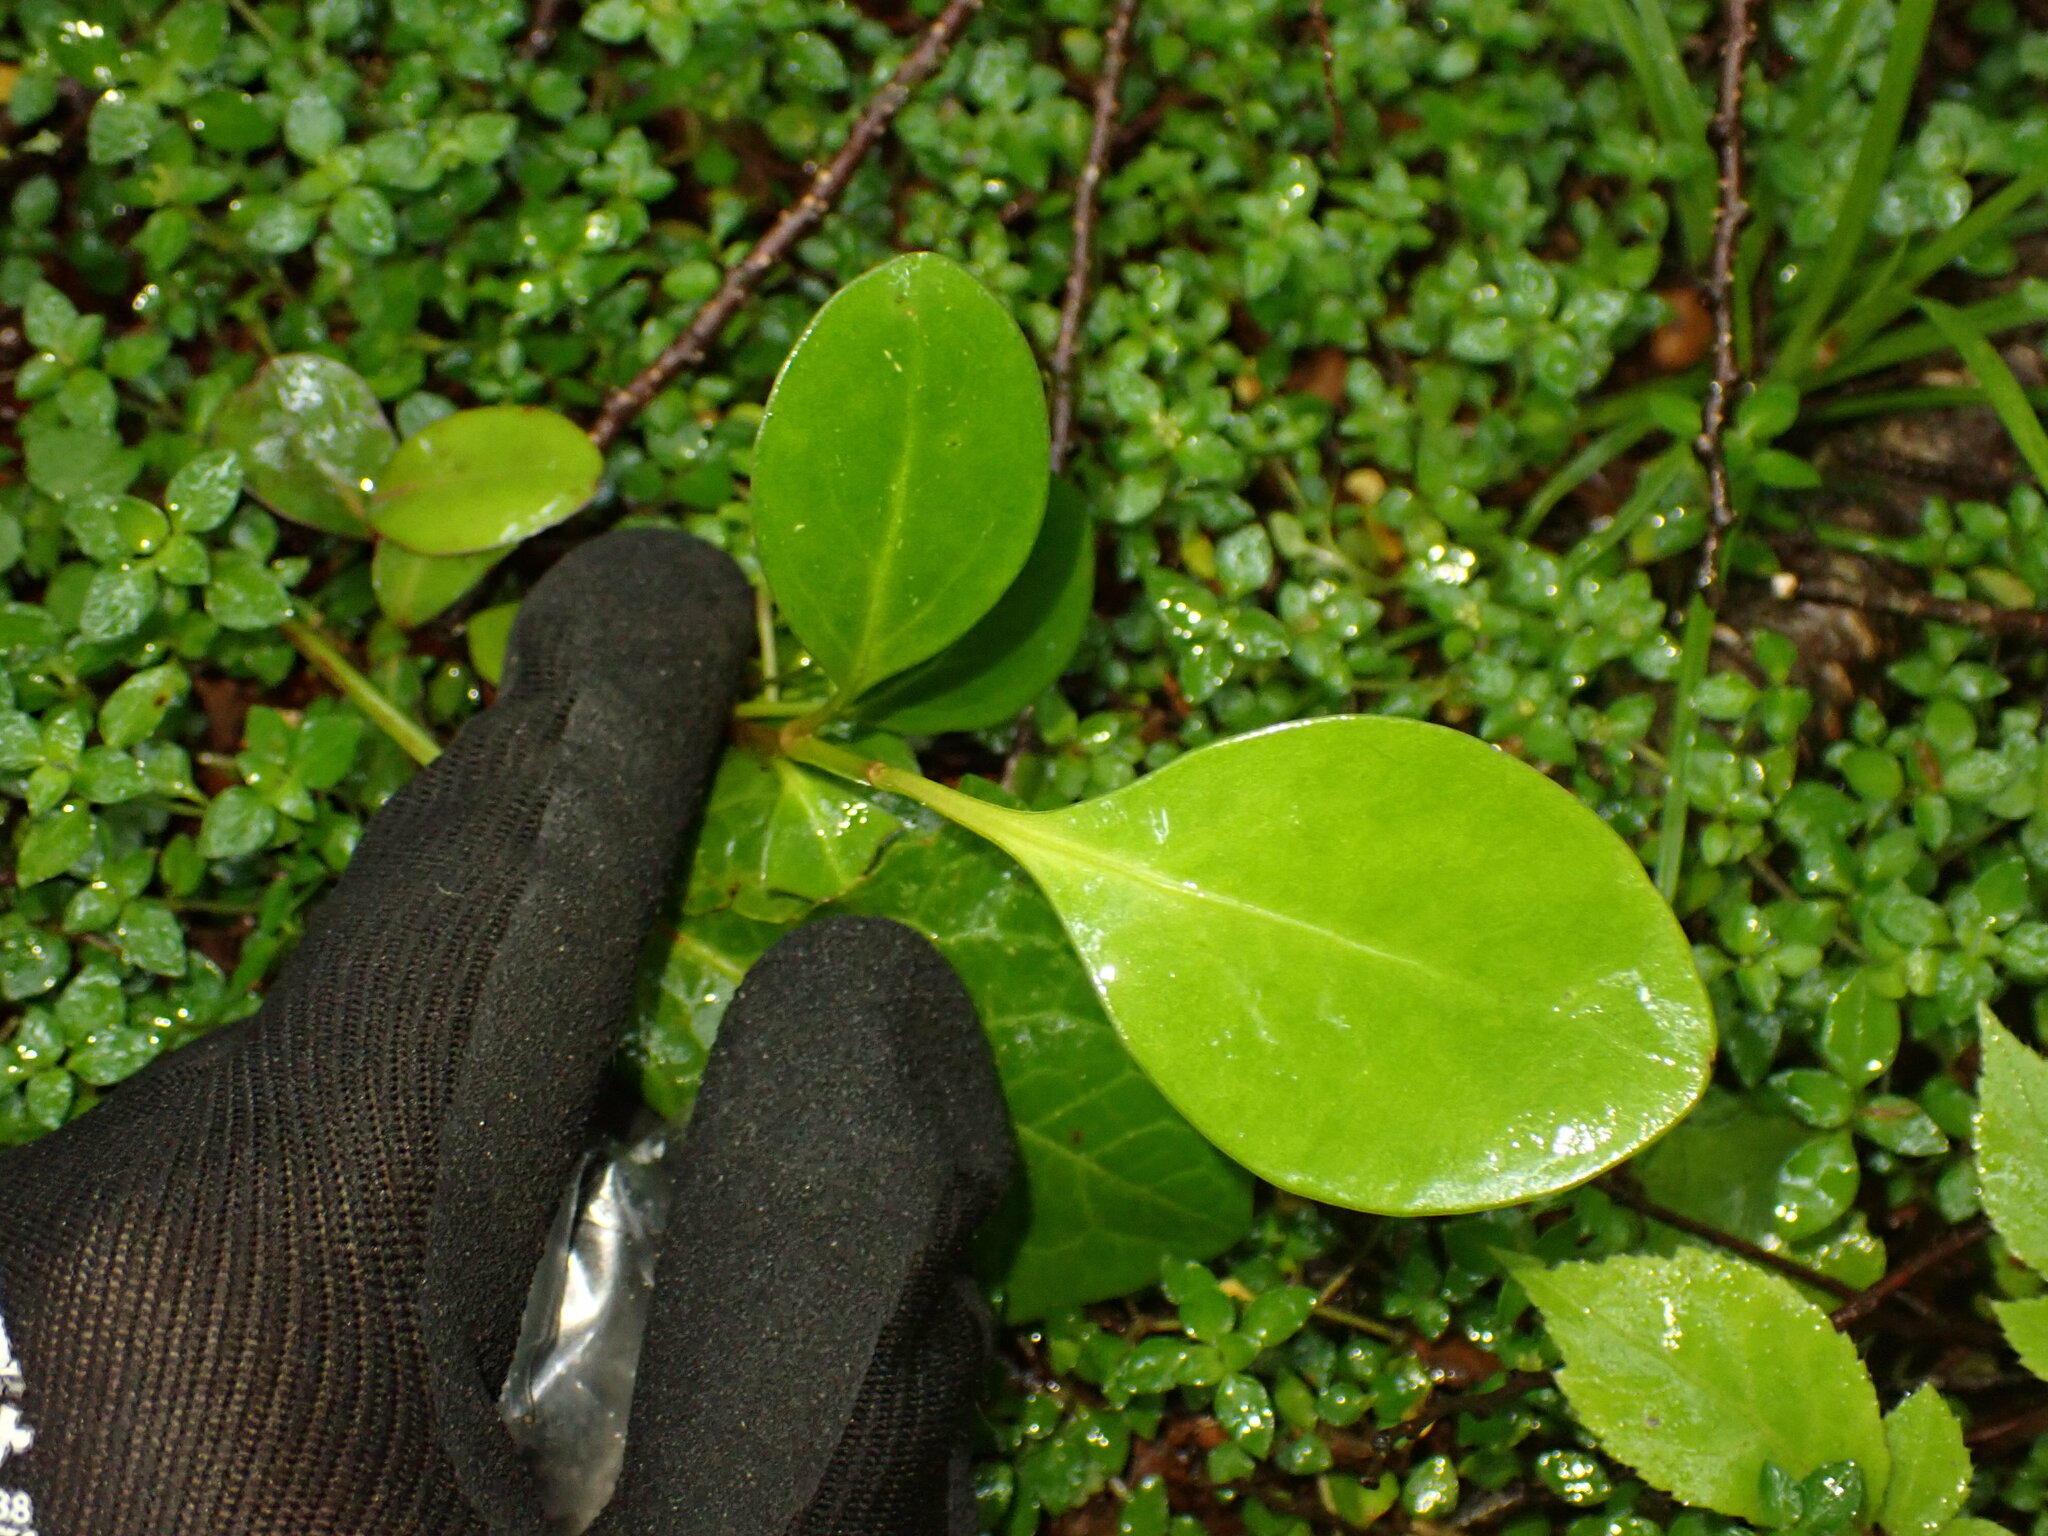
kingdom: Plantae
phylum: Tracheophyta
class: Magnoliopsida
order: Apiales
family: Griseliniaceae
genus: Griselinia
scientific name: Griselinia littoralis
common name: New zealand broadleaf
